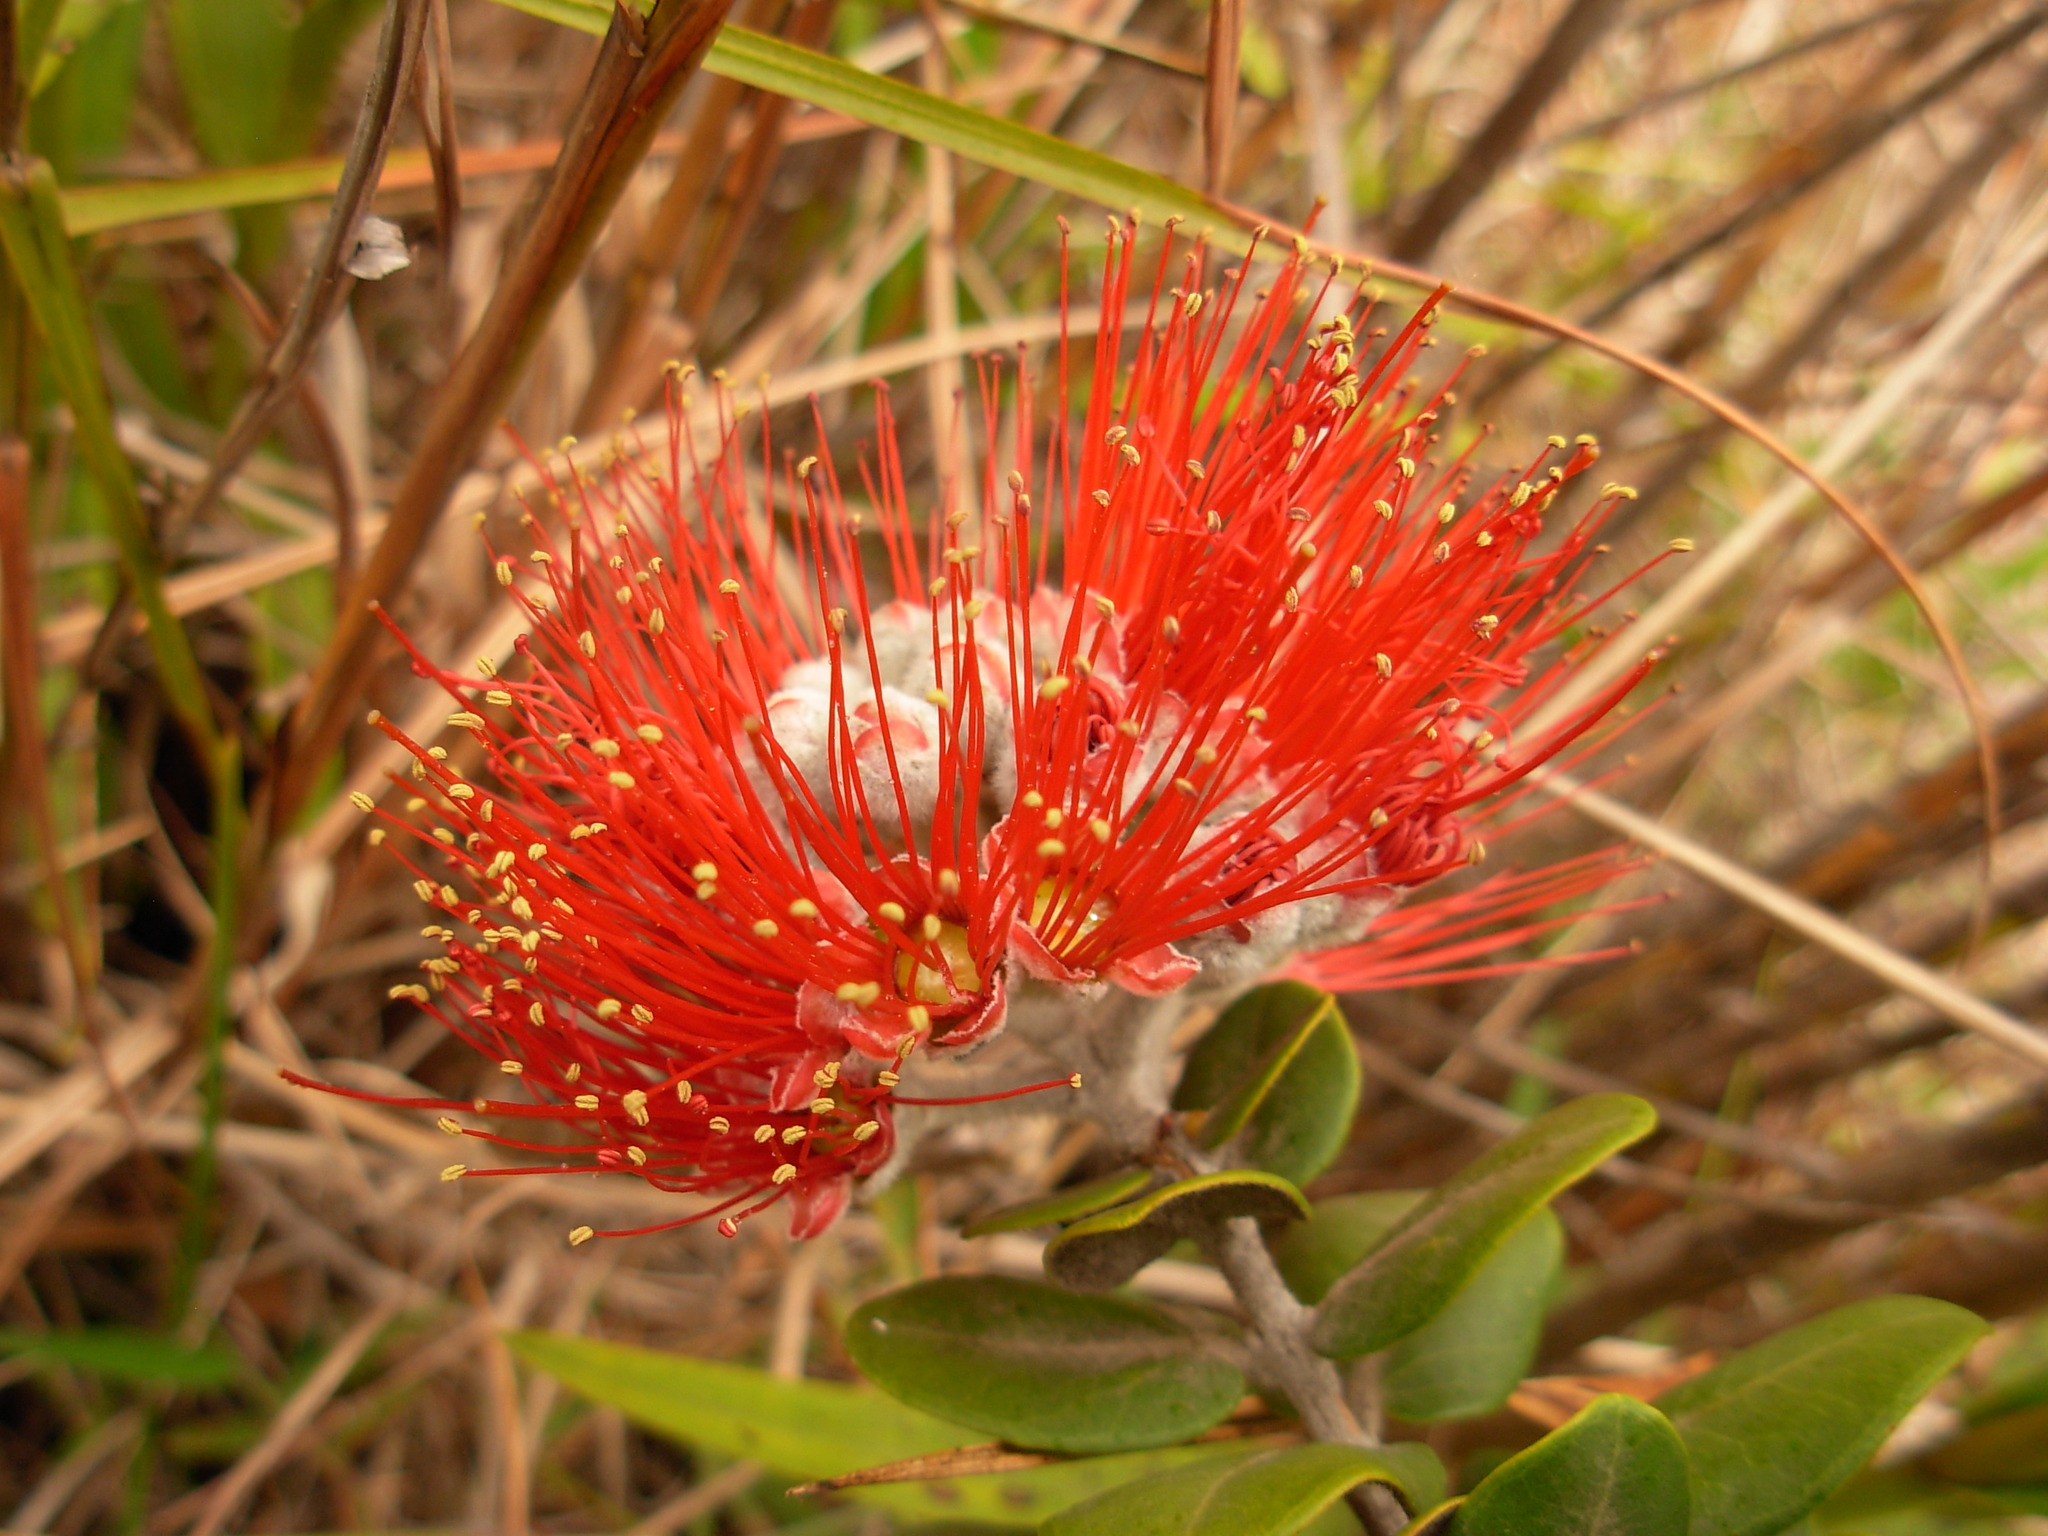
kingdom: Plantae
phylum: Tracheophyta
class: Magnoliopsida
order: Myrtales
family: Myrtaceae
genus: Metrosideros
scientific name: Metrosideros polymorpha
